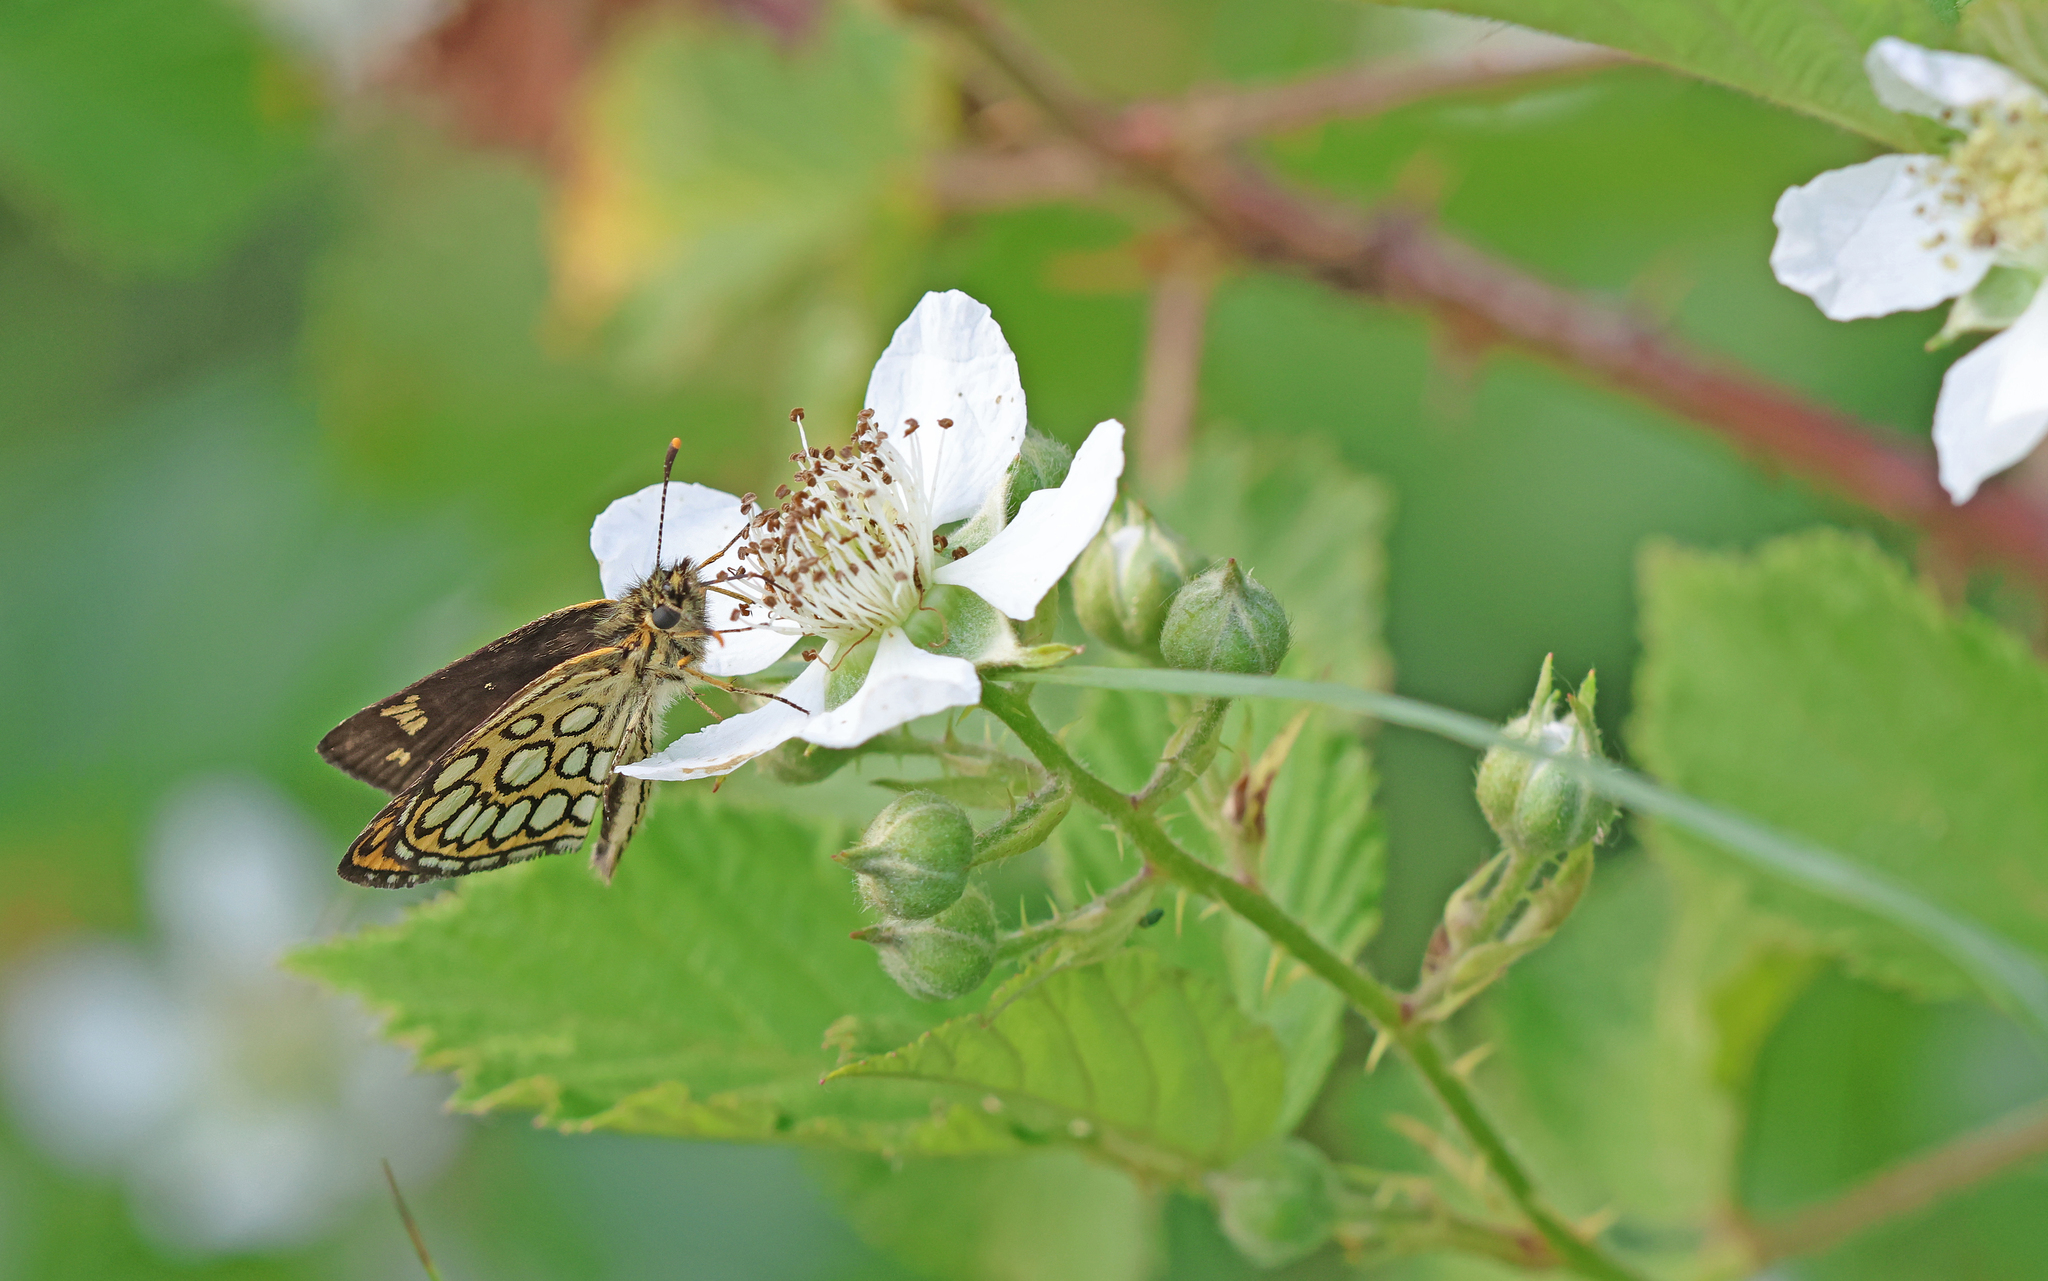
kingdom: Animalia
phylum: Arthropoda
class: Insecta
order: Lepidoptera
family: Hesperiidae
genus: Heteropterus
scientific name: Heteropterus morpheus
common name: Large chequered skipper
